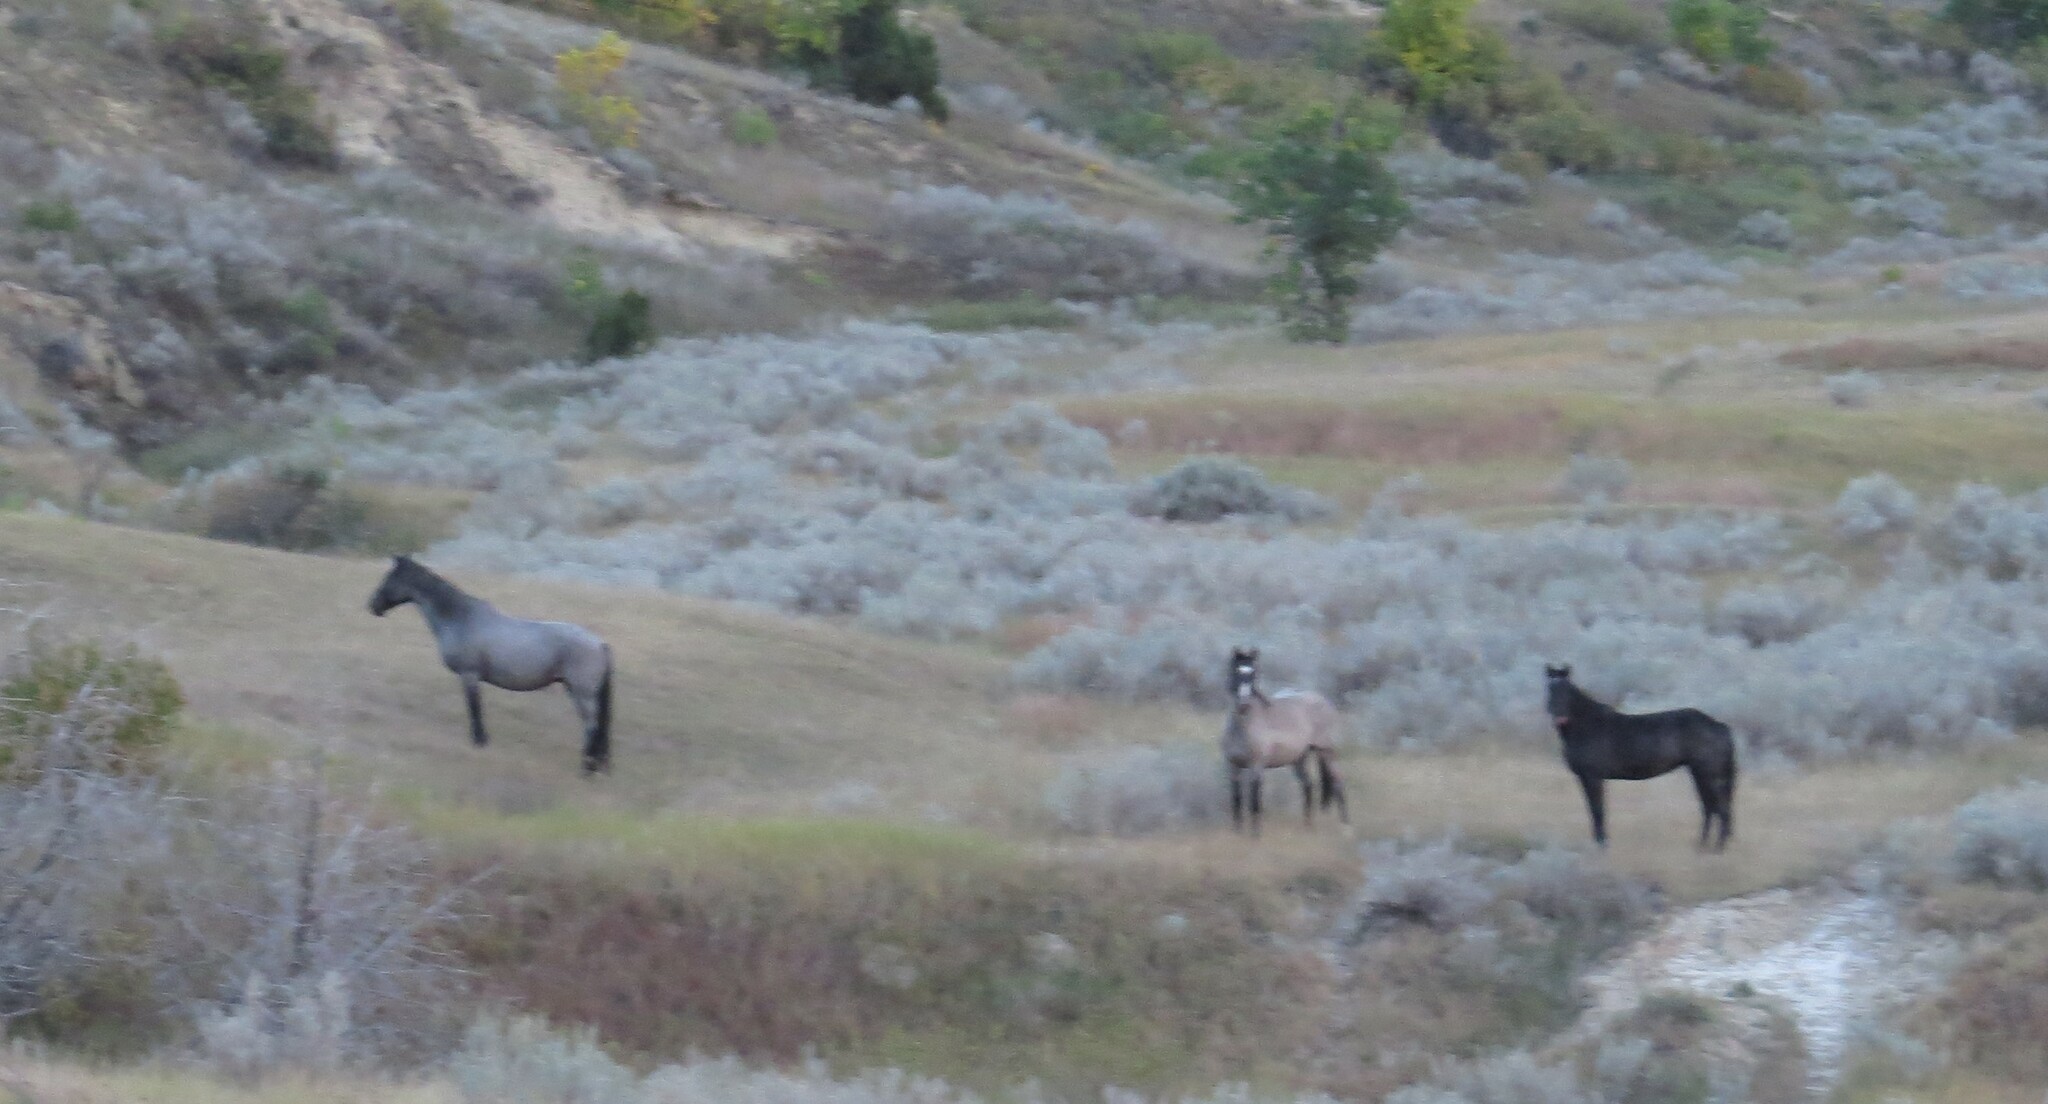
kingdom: Animalia
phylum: Chordata
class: Mammalia
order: Perissodactyla
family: Equidae
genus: Equus
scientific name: Equus caballus
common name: Horse
